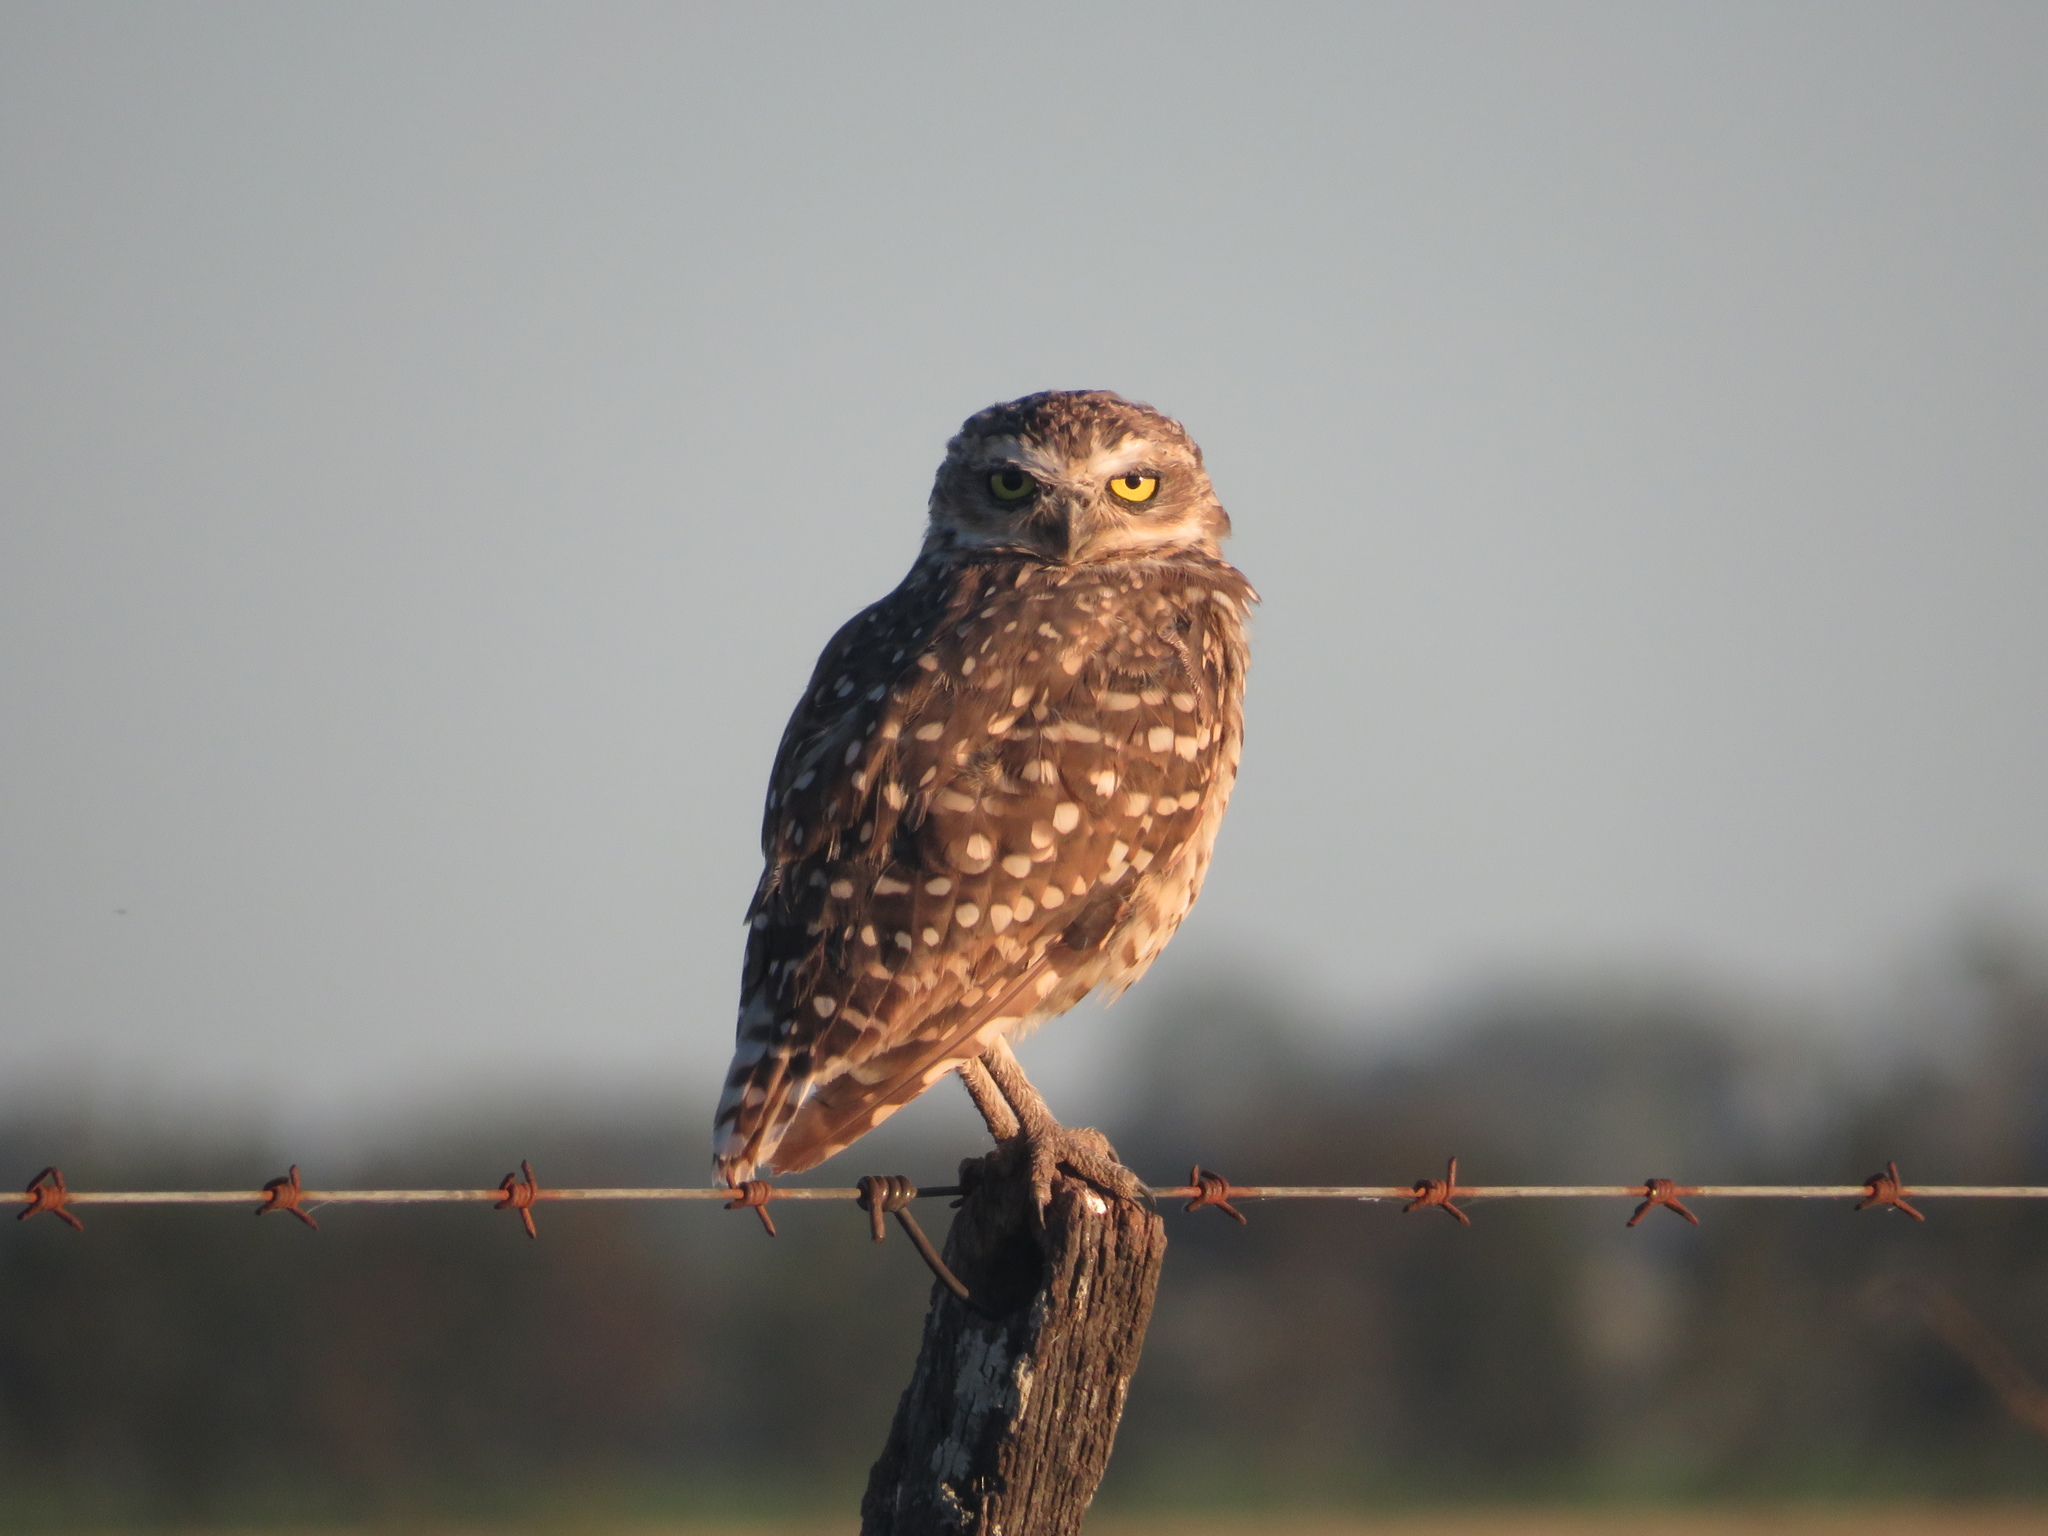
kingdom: Animalia
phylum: Chordata
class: Aves
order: Strigiformes
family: Strigidae
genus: Athene
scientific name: Athene cunicularia
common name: Burrowing owl
